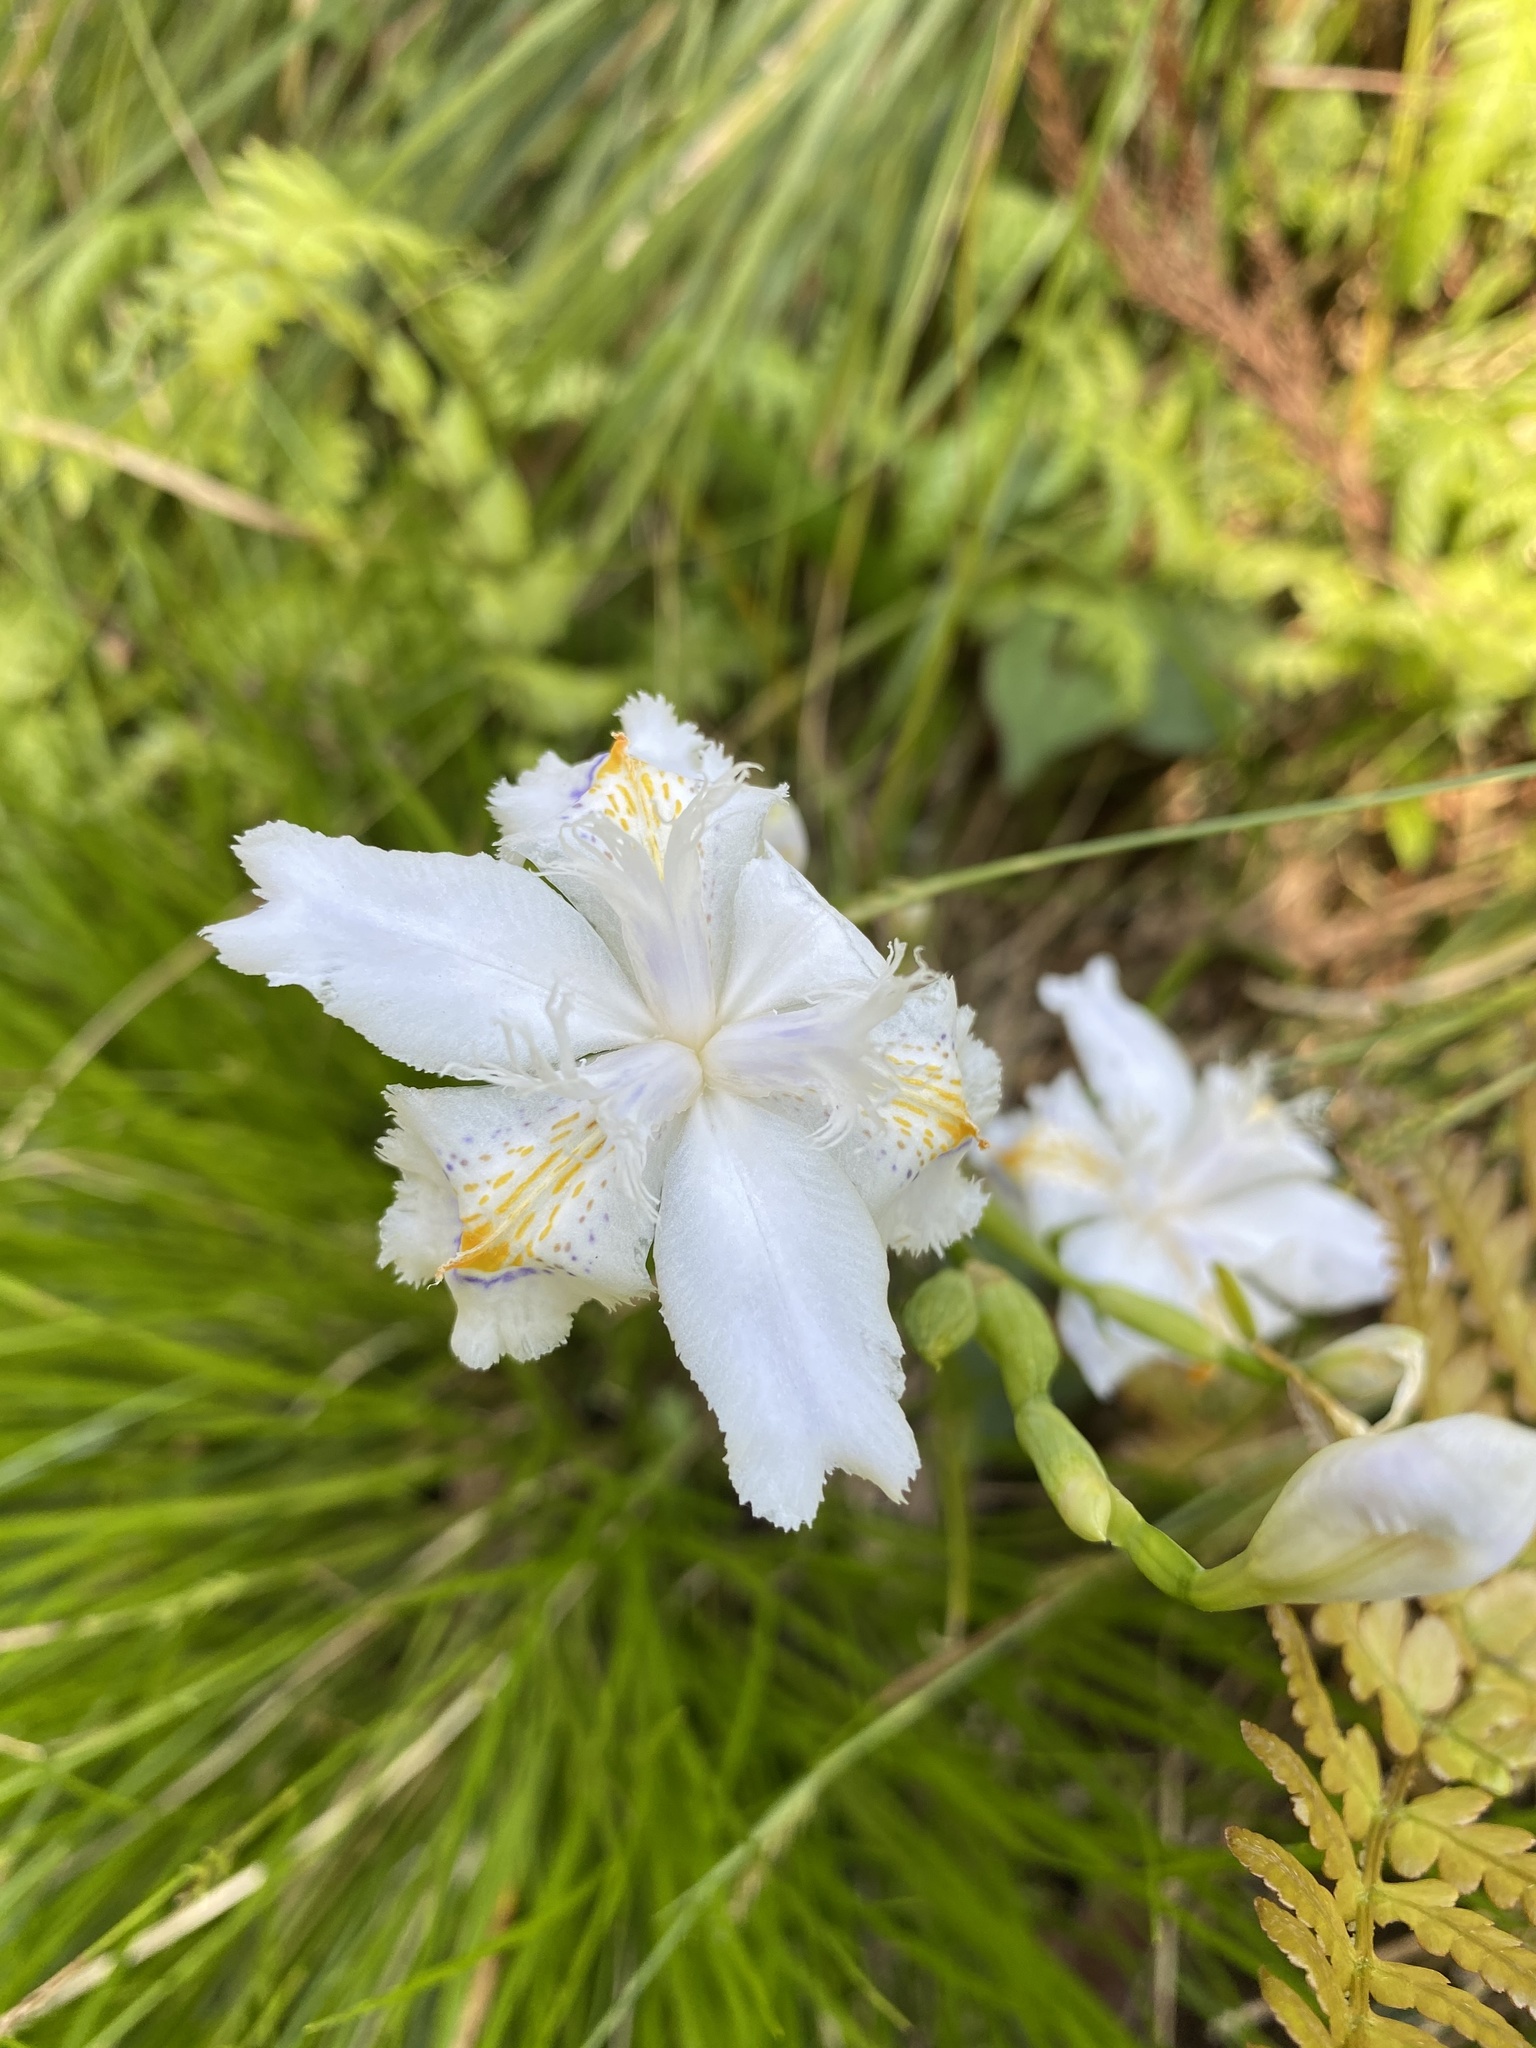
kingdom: Plantae
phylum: Tracheophyta
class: Liliopsida
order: Asparagales
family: Iridaceae
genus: Iris
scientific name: Iris japonica
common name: Butterfly-flower
